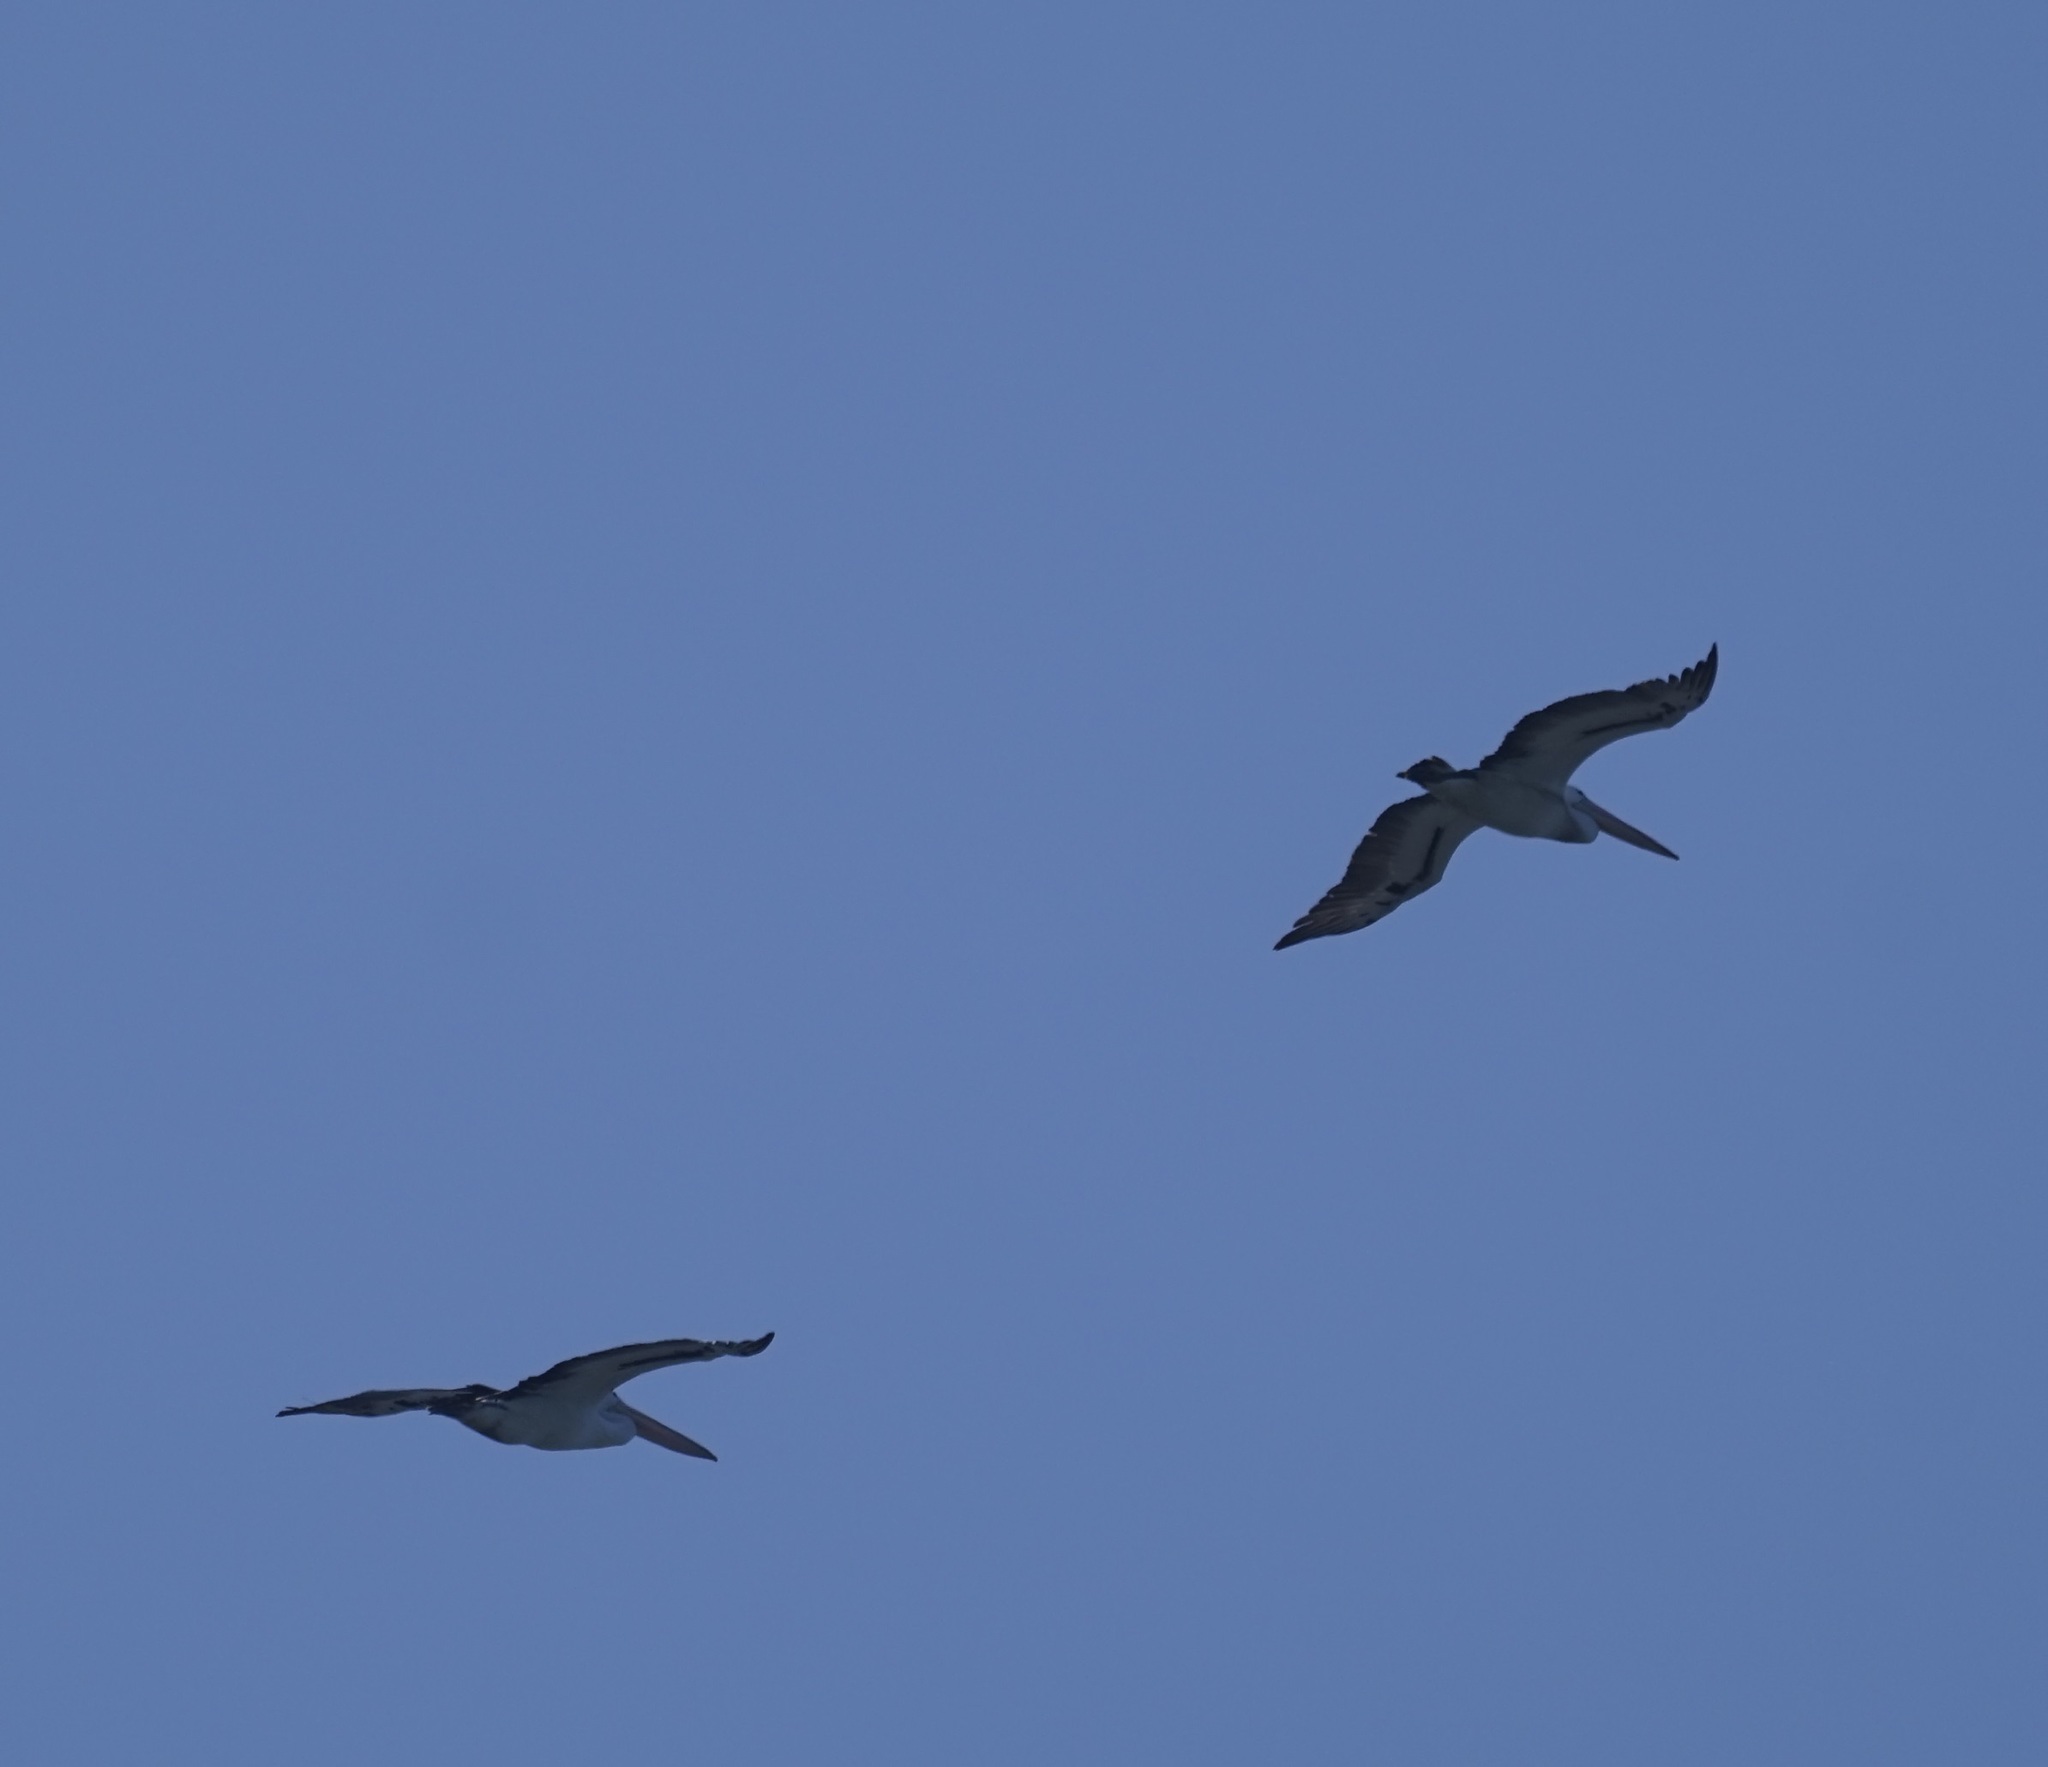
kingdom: Animalia
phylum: Chordata
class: Aves
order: Pelecaniformes
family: Pelecanidae
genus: Pelecanus
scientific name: Pelecanus conspicillatus
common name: Australian pelican
